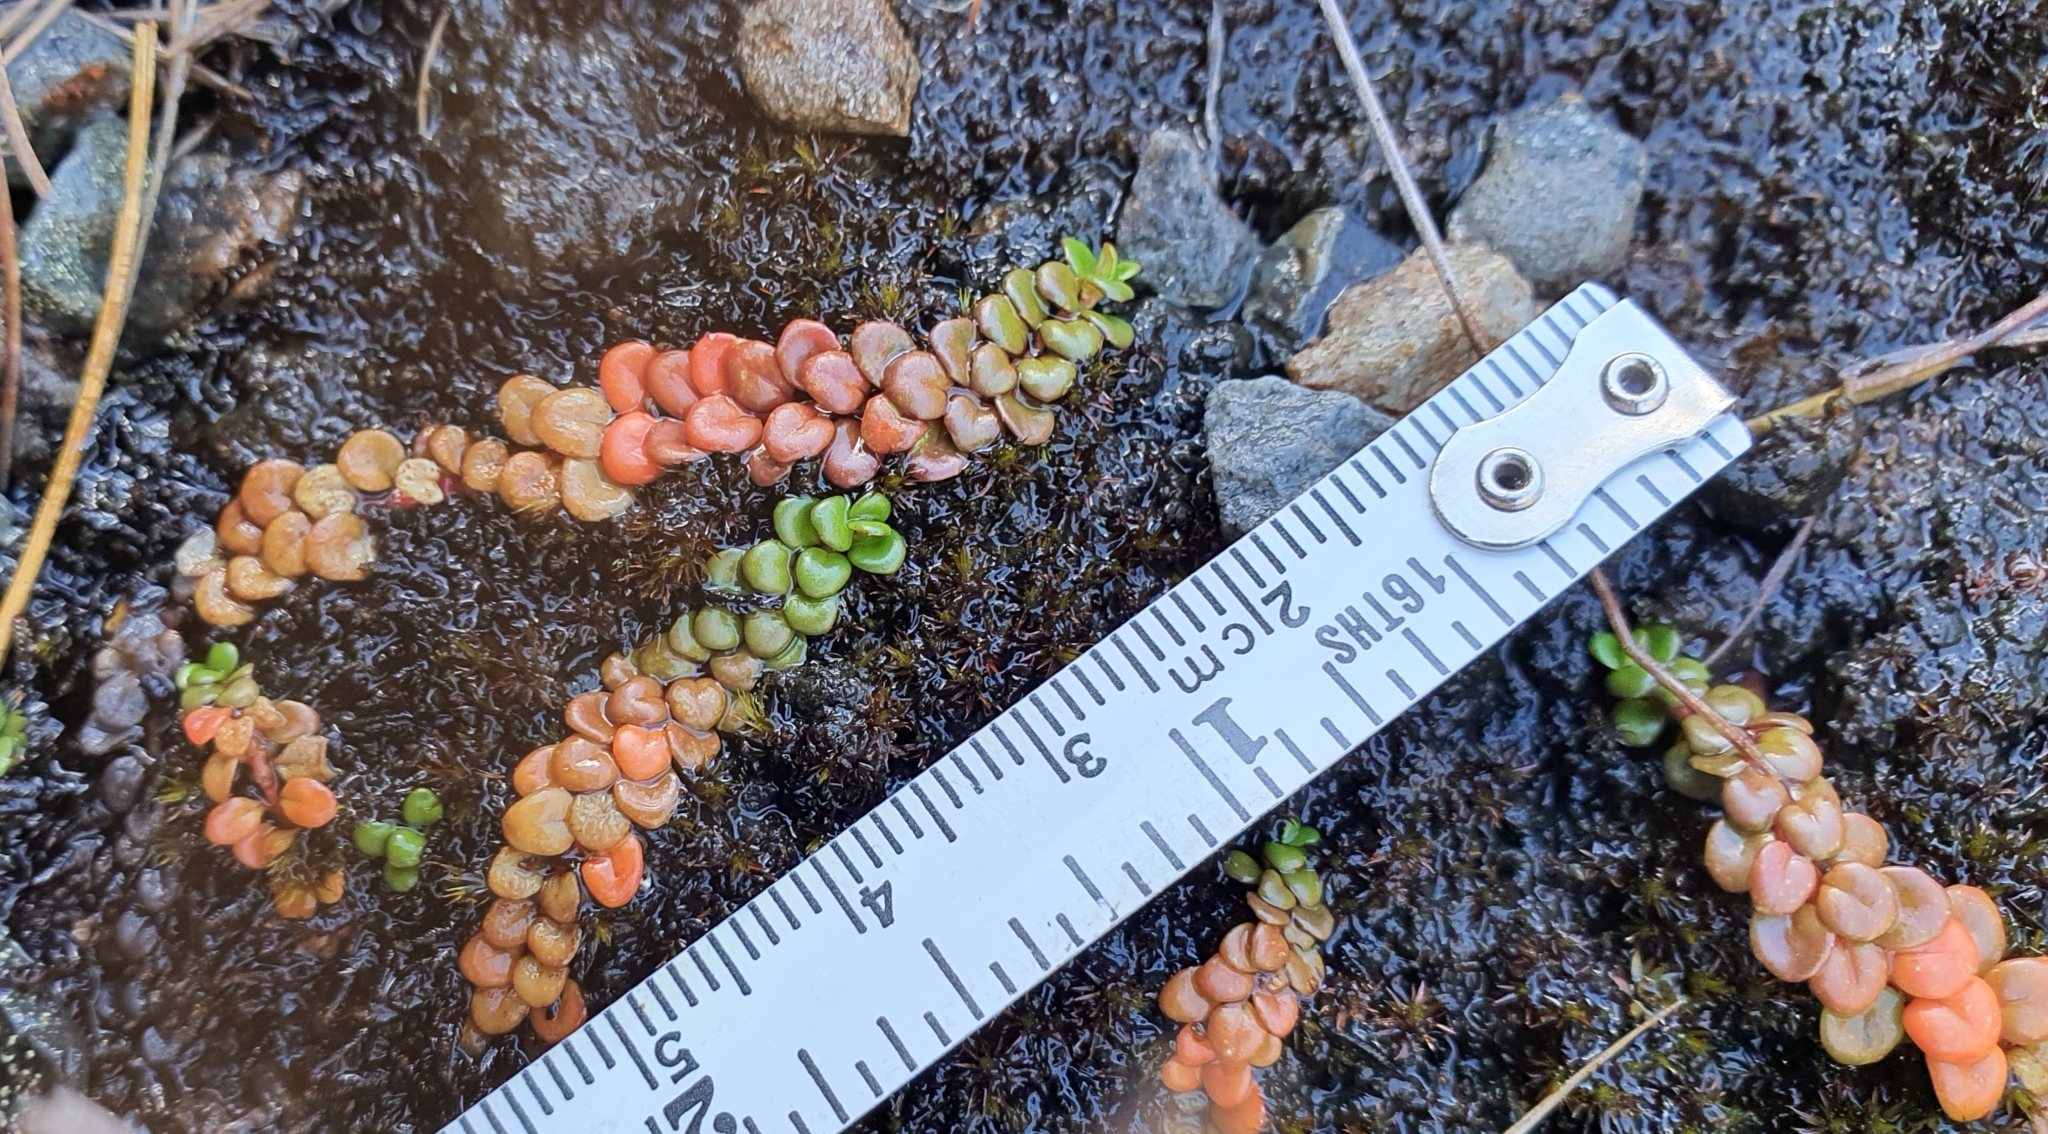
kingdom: Plantae
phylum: Tracheophyta
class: Magnoliopsida
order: Myrtales
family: Onagraceae
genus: Epilobium
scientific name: Epilobium pernitens
